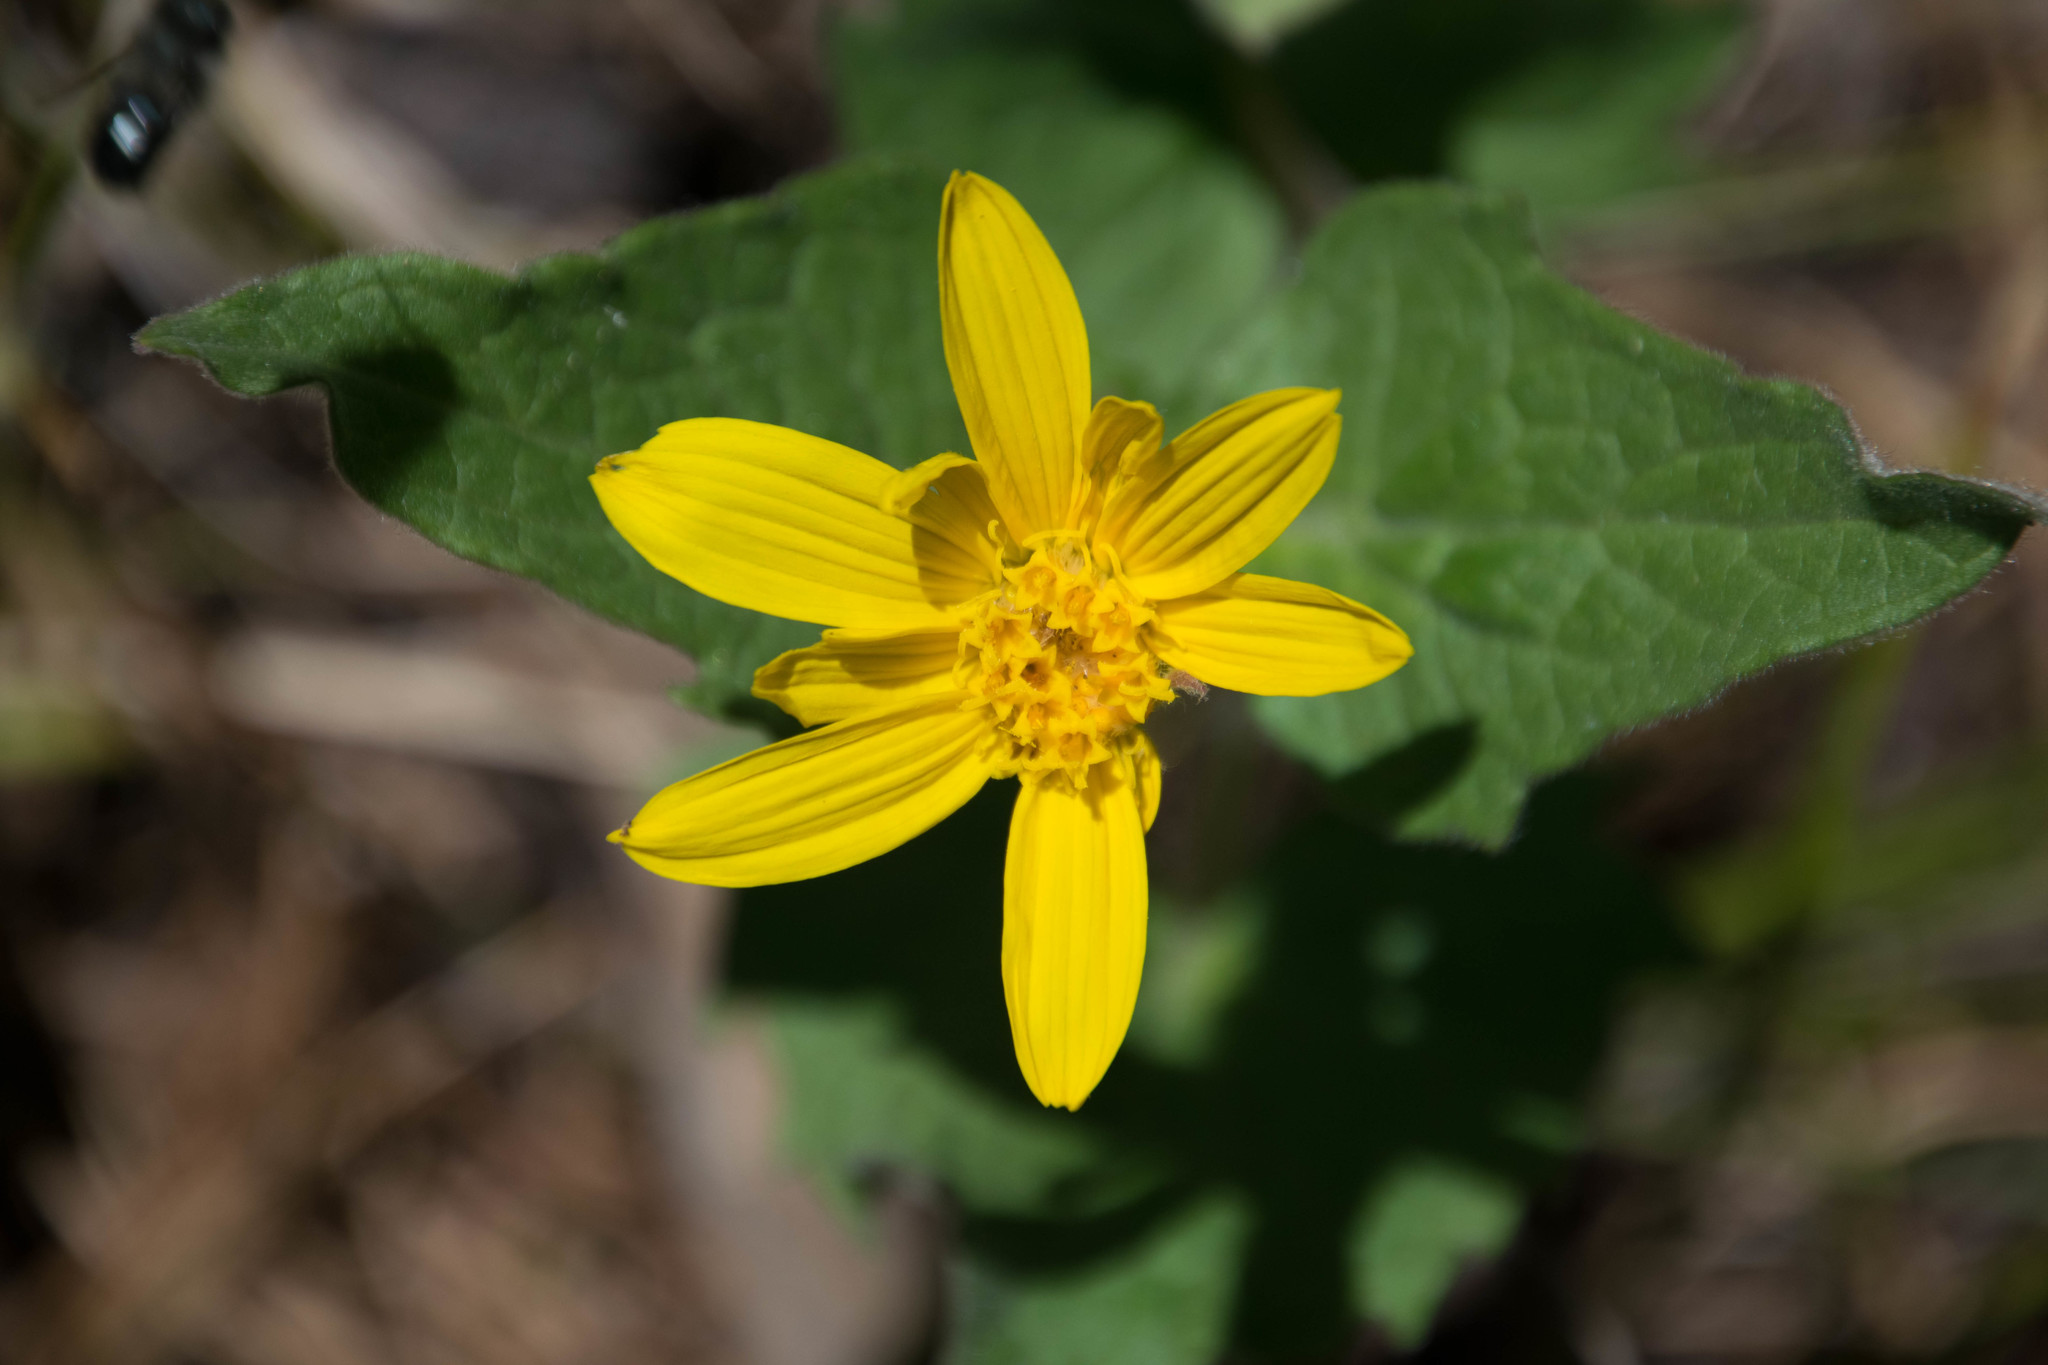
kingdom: Plantae
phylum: Tracheophyta
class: Magnoliopsida
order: Asterales
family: Asteraceae
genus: Arnica
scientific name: Arnica cordifolia
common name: Heart-leaf arnica
